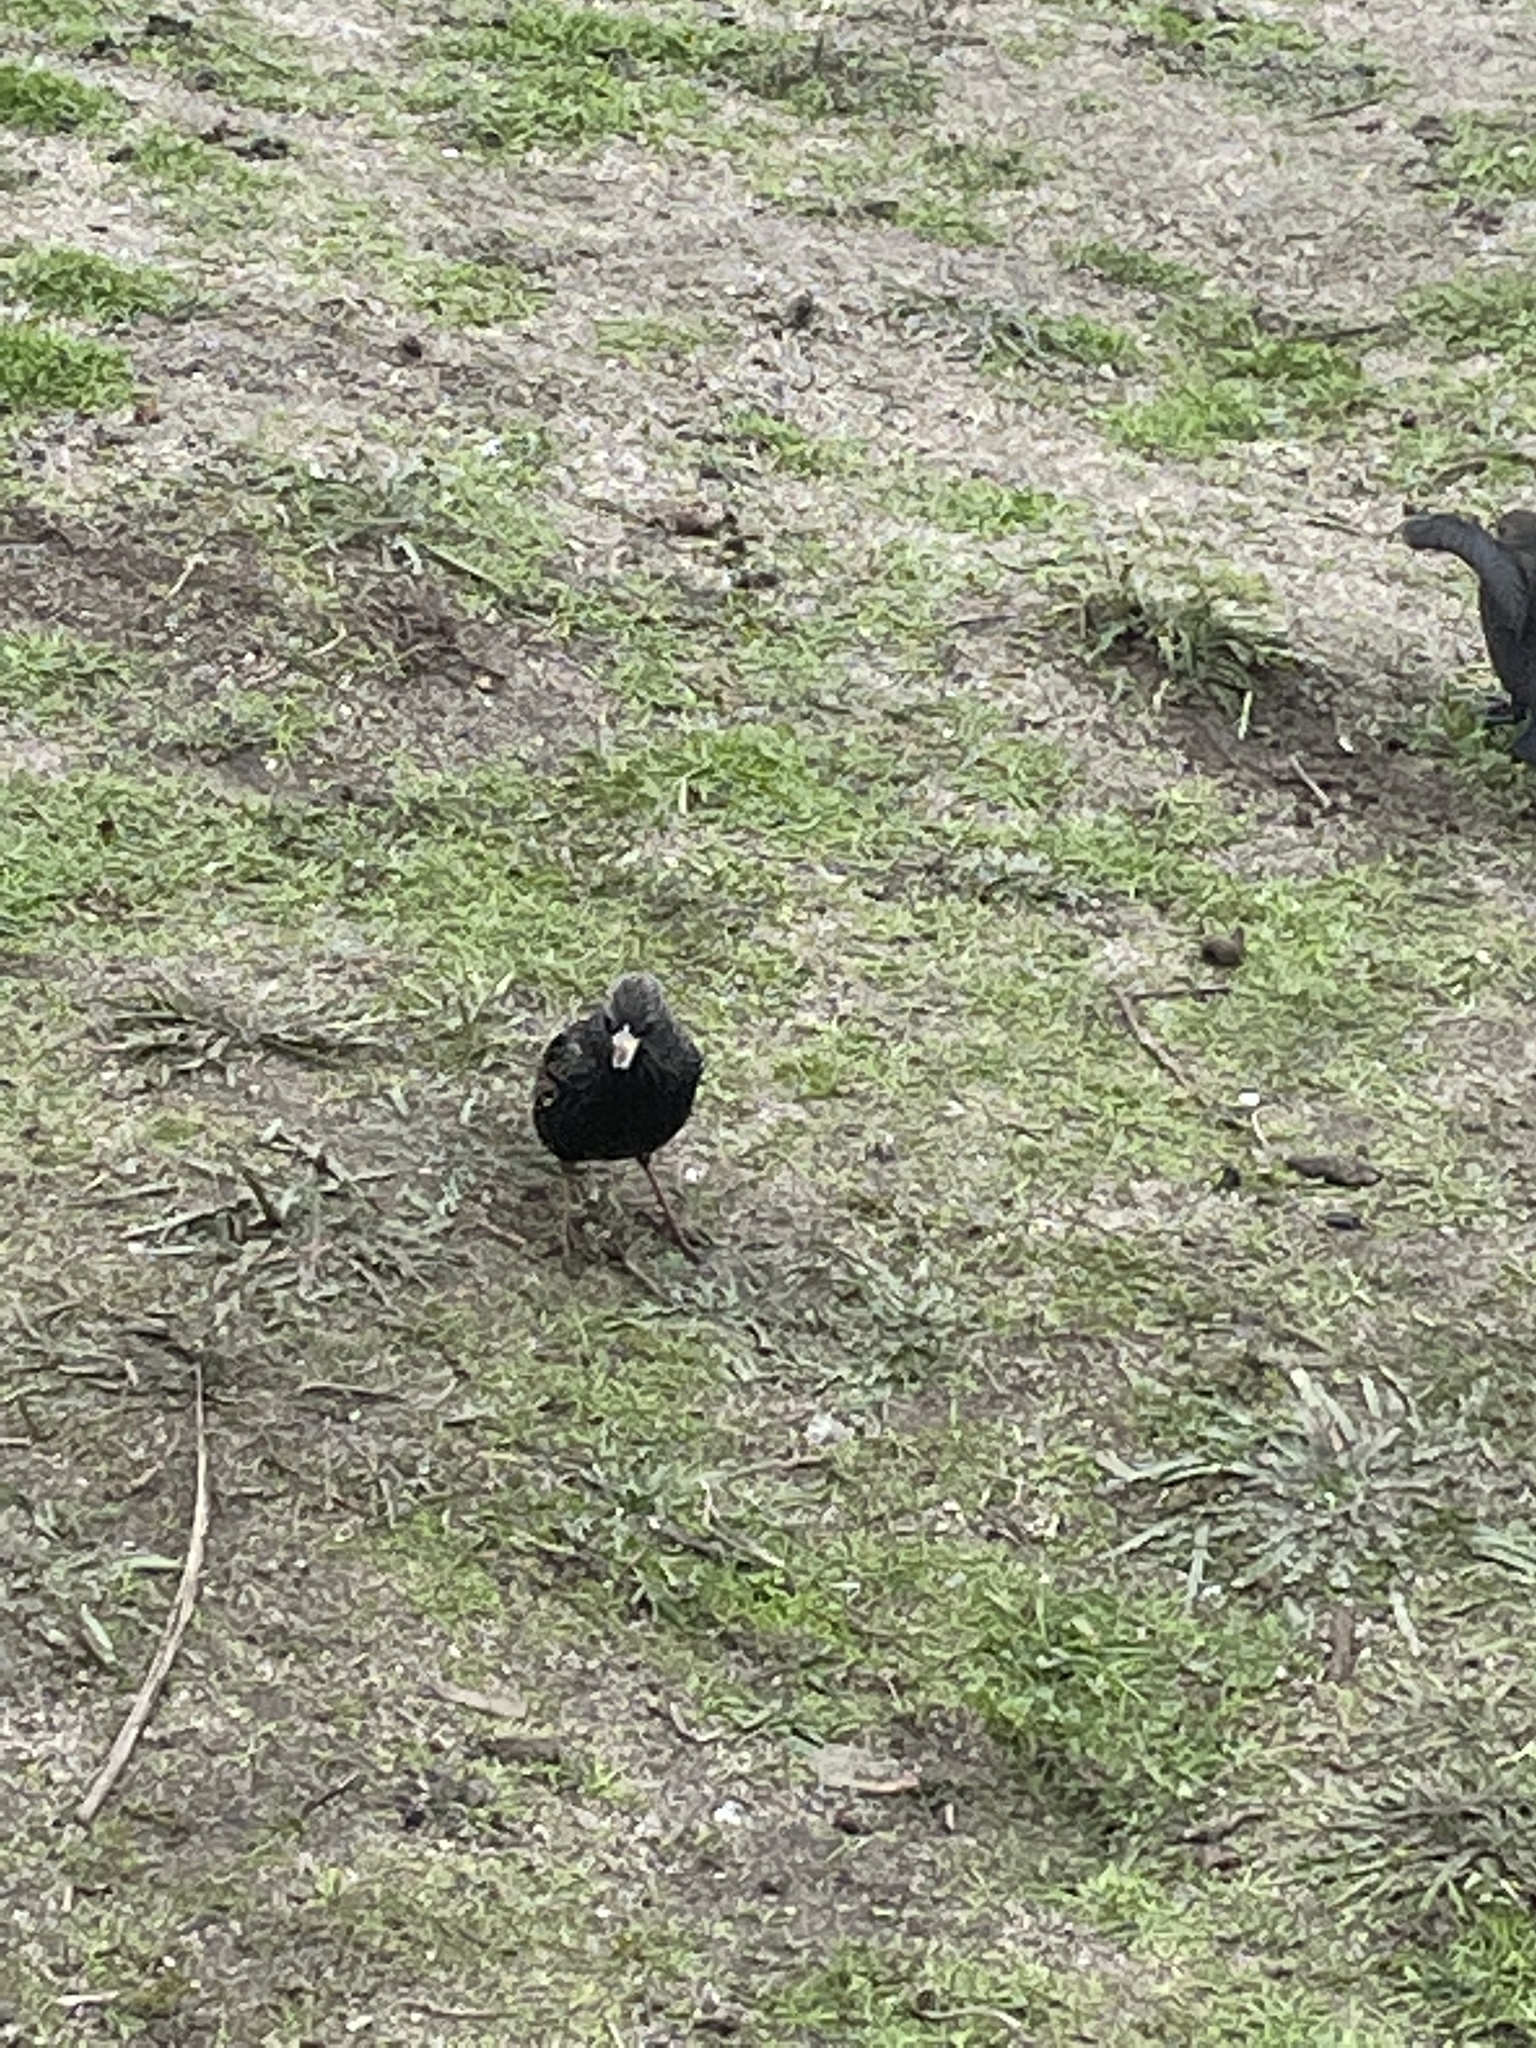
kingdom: Animalia
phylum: Chordata
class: Aves
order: Passeriformes
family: Sturnidae
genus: Sturnus
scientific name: Sturnus vulgaris
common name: Common starling
